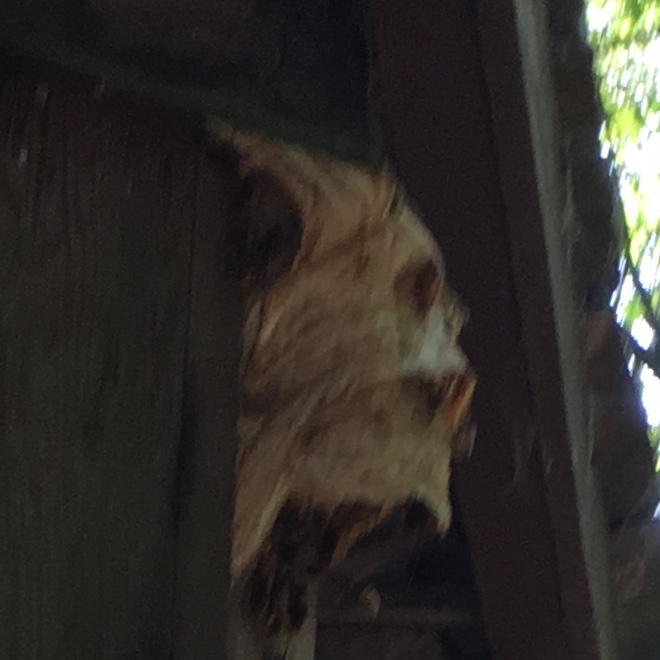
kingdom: Animalia
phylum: Arthropoda
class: Insecta
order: Hymenoptera
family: Vespidae
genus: Vespa
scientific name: Vespa crabro
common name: Hornet
